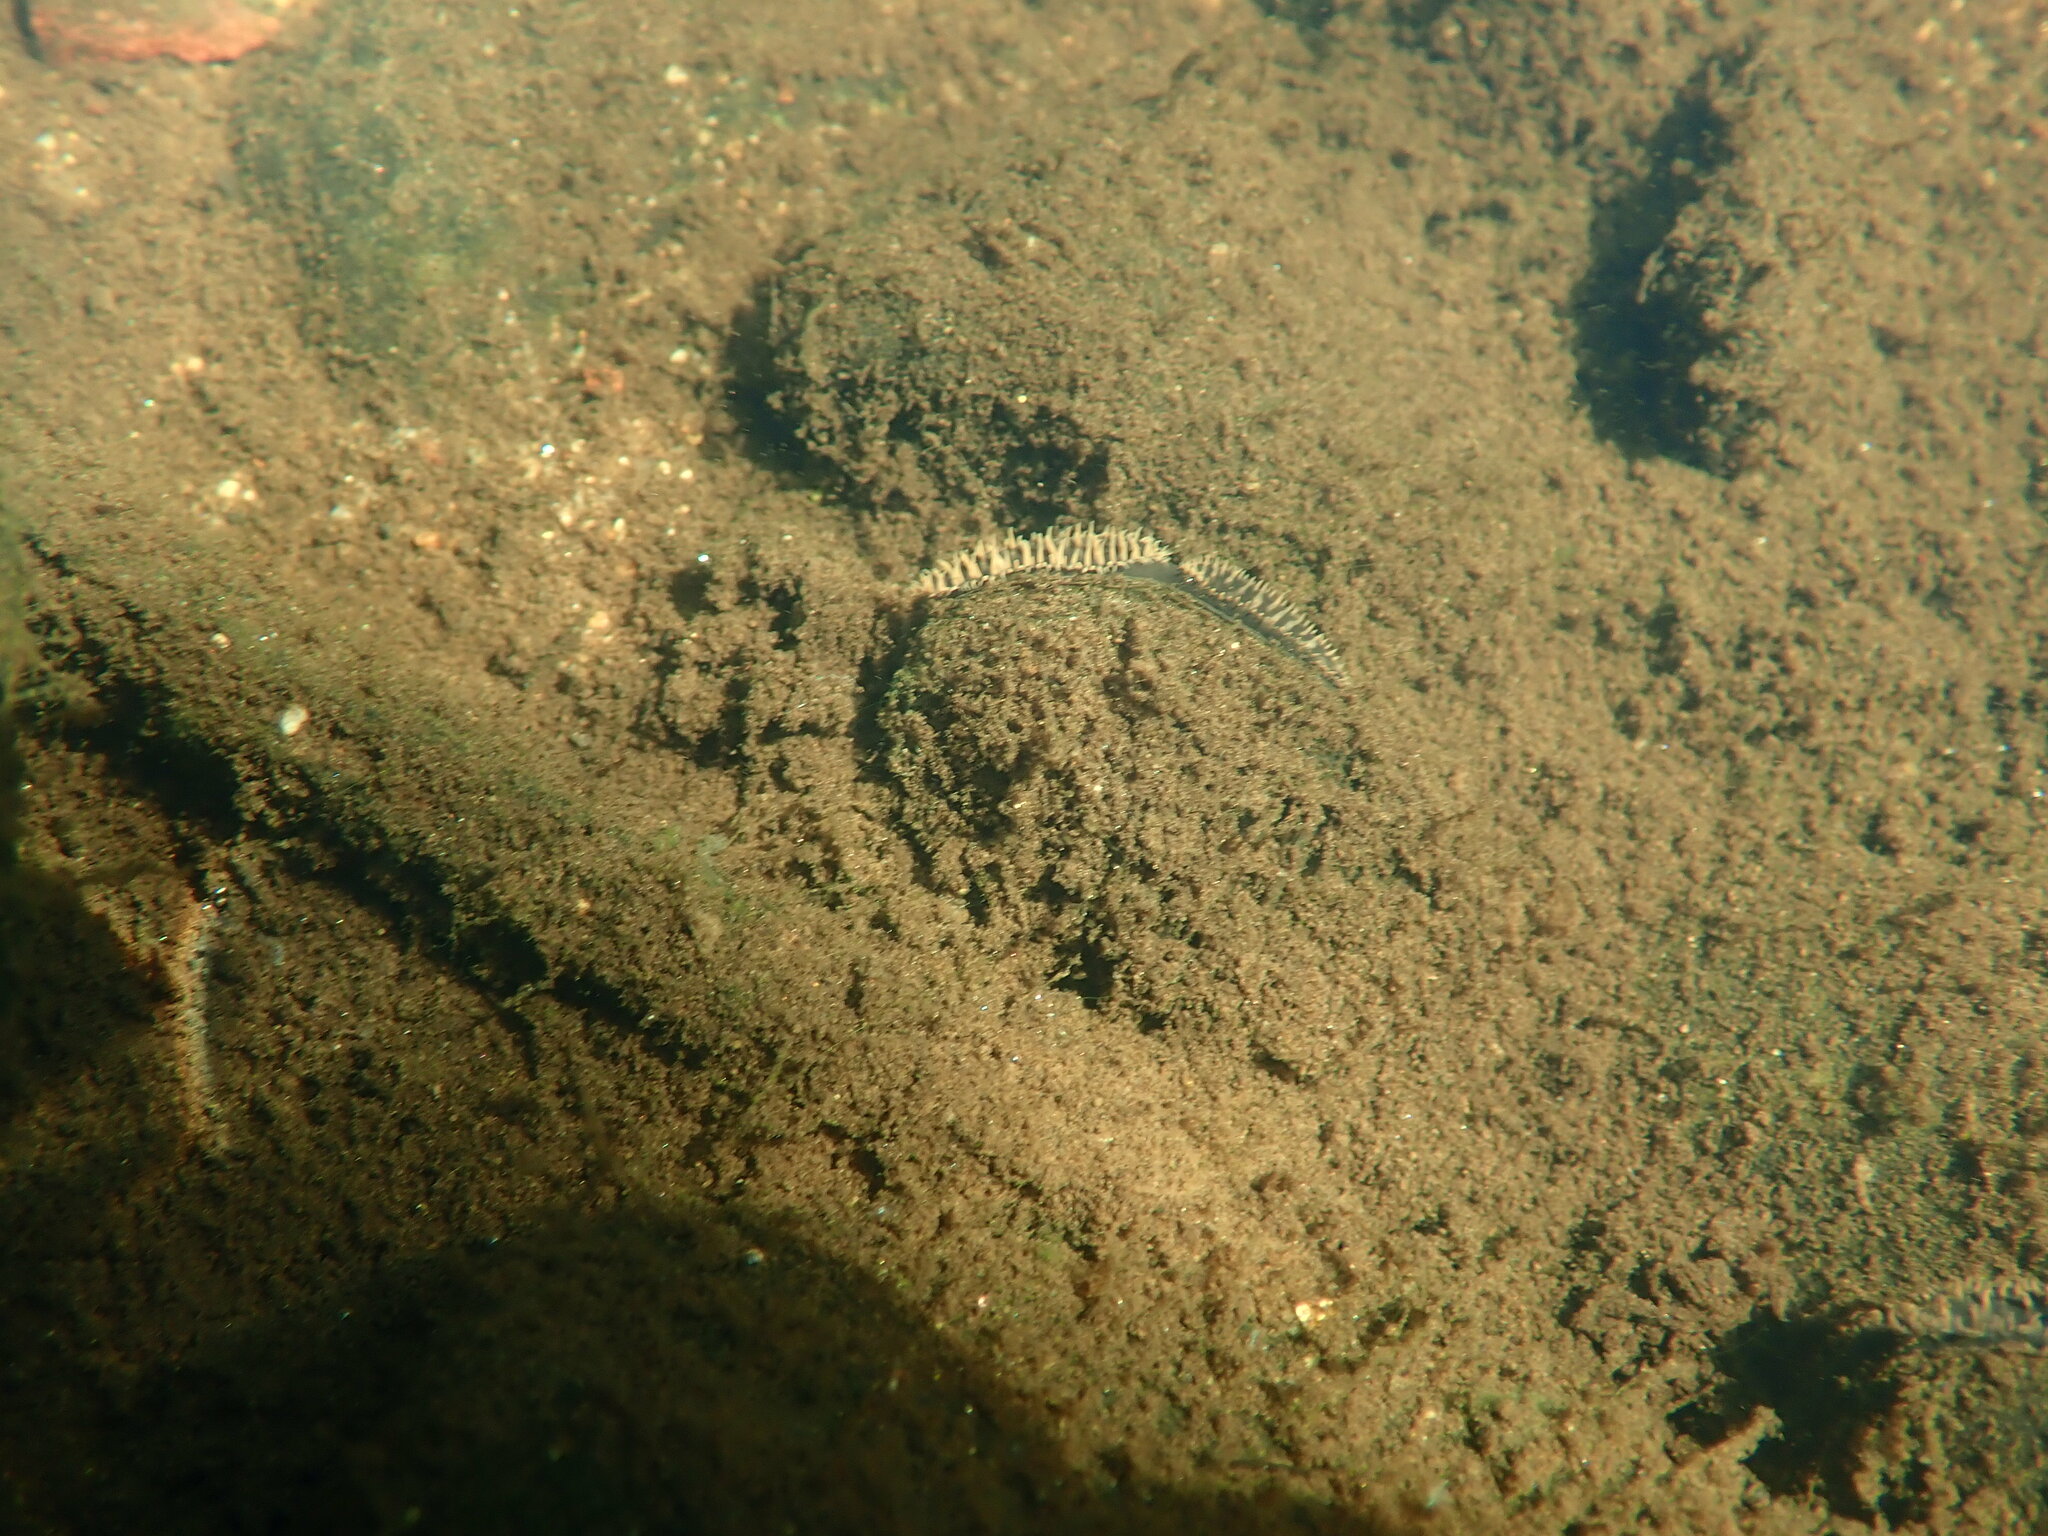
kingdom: Animalia
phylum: Mollusca
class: Bivalvia
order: Unionida
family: Unionidae
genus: Elliptio
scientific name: Elliptio complanata
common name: Eastern elliptio
